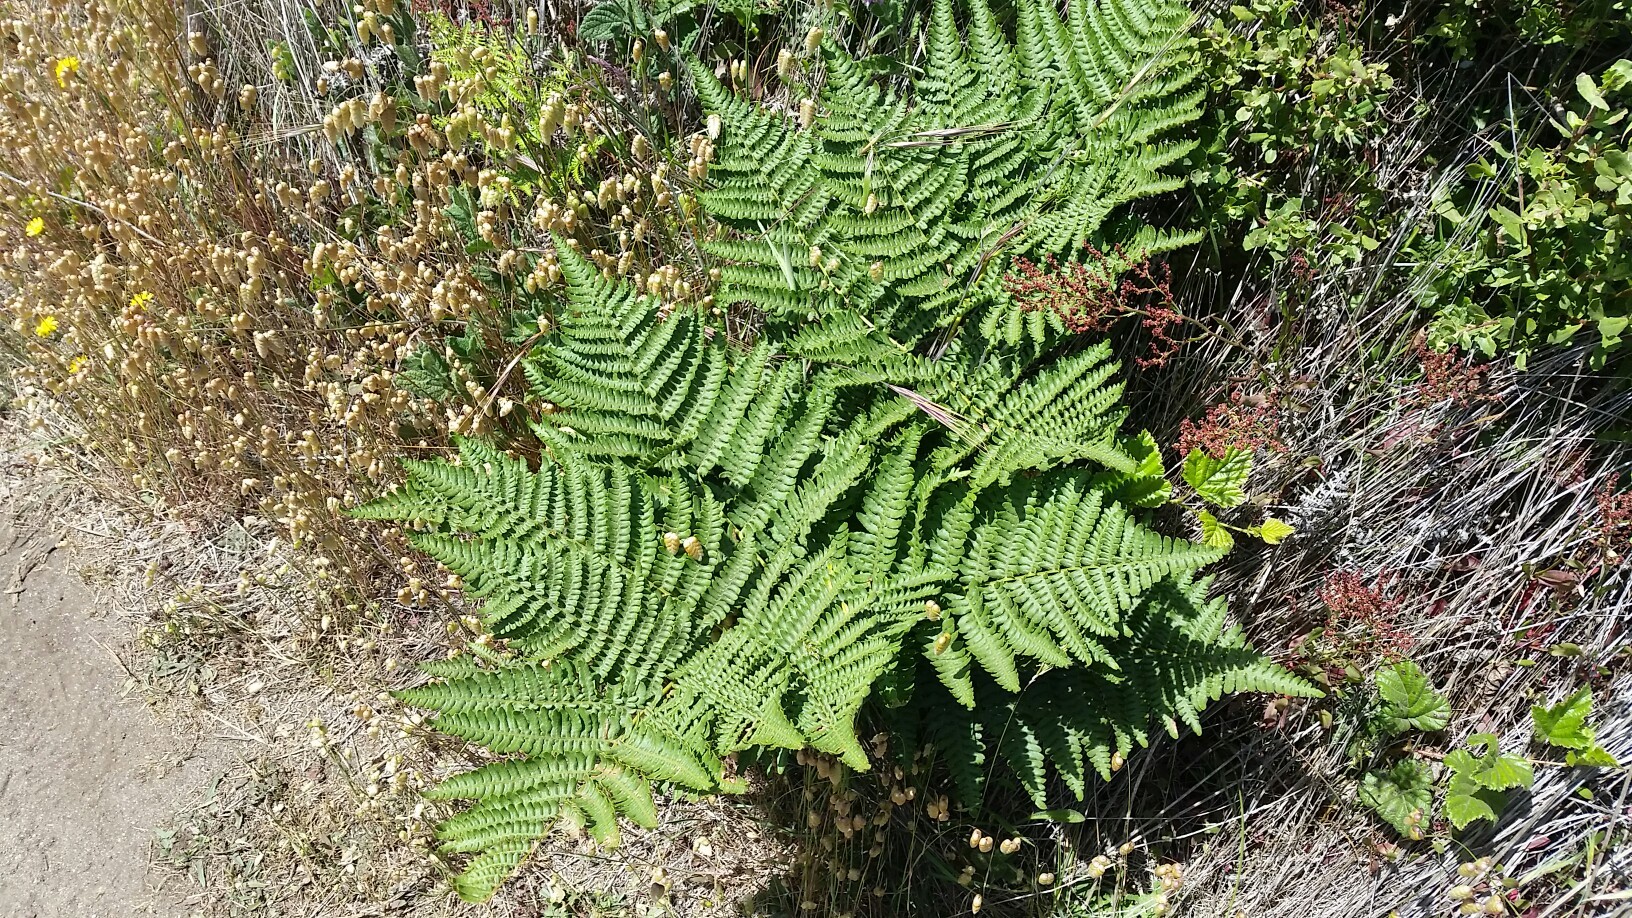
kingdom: Plantae
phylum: Tracheophyta
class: Polypodiopsida
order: Polypodiales
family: Dennstaedtiaceae
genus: Pteridium
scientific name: Pteridium aquilinum
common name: Bracken
